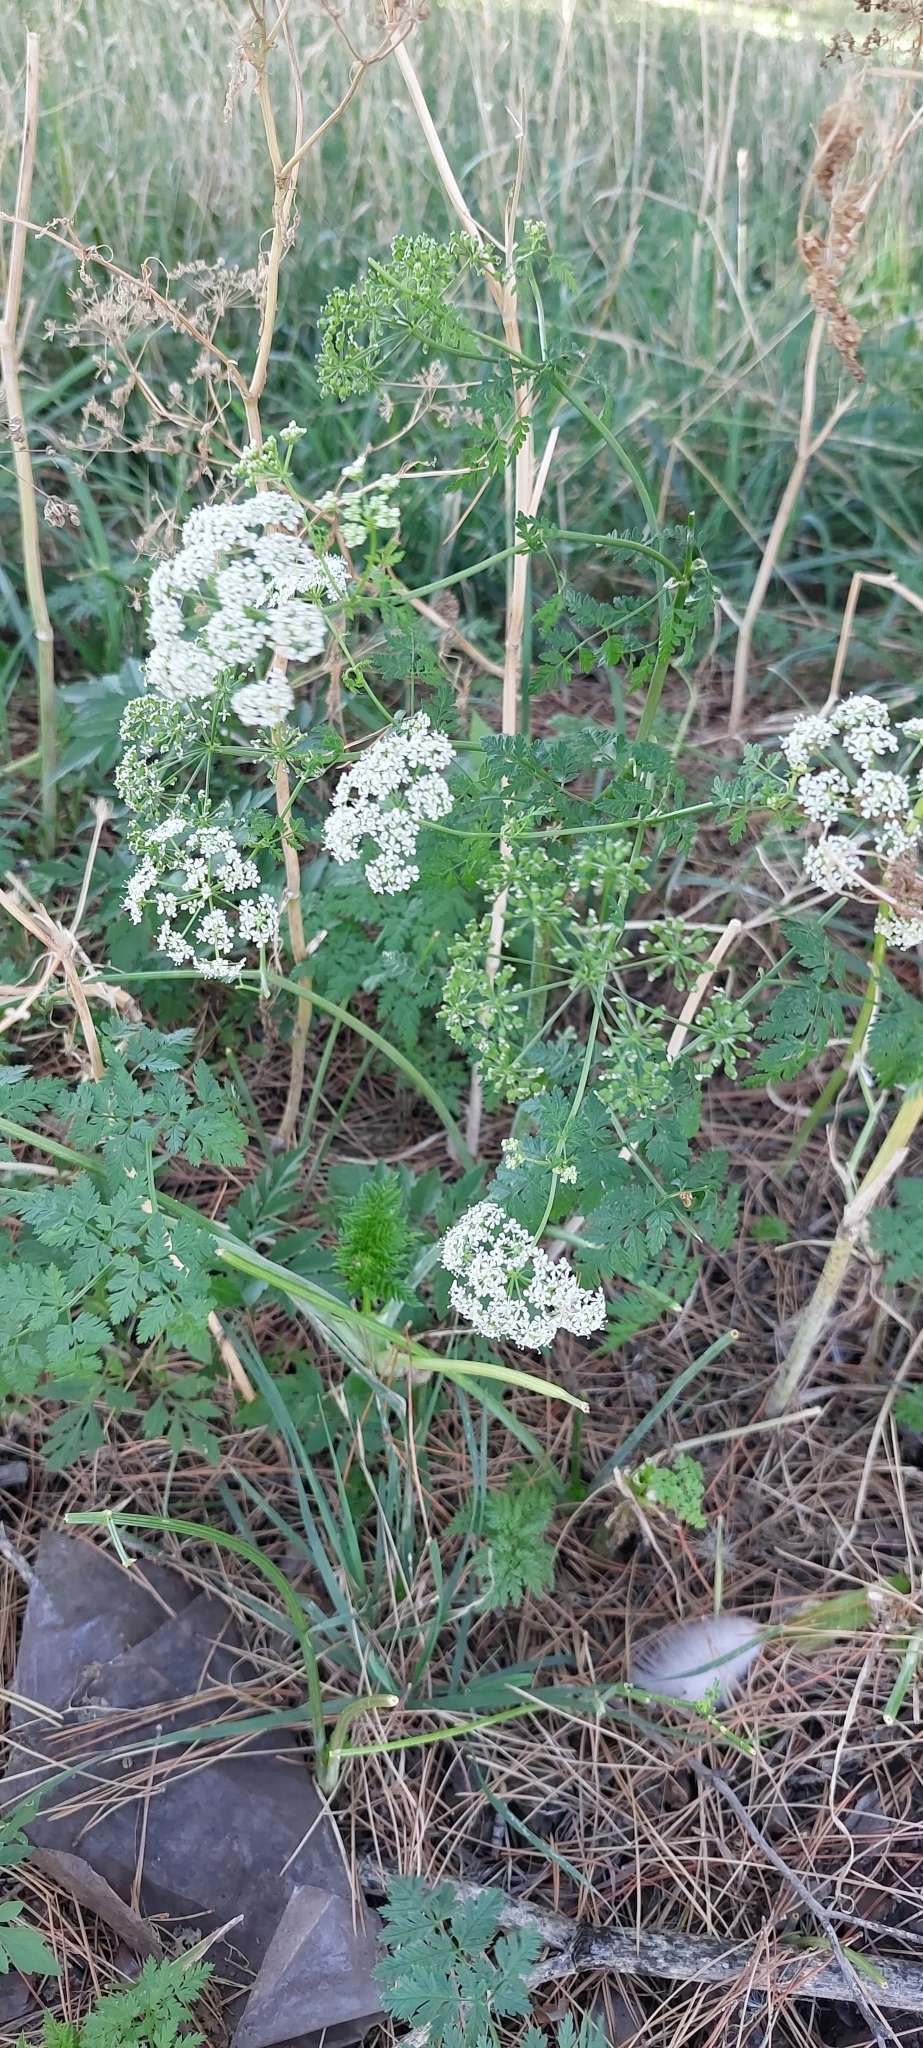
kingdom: Plantae
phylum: Tracheophyta
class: Magnoliopsida
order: Apiales
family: Apiaceae
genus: Conium
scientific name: Conium maculatum
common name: Hemlock
